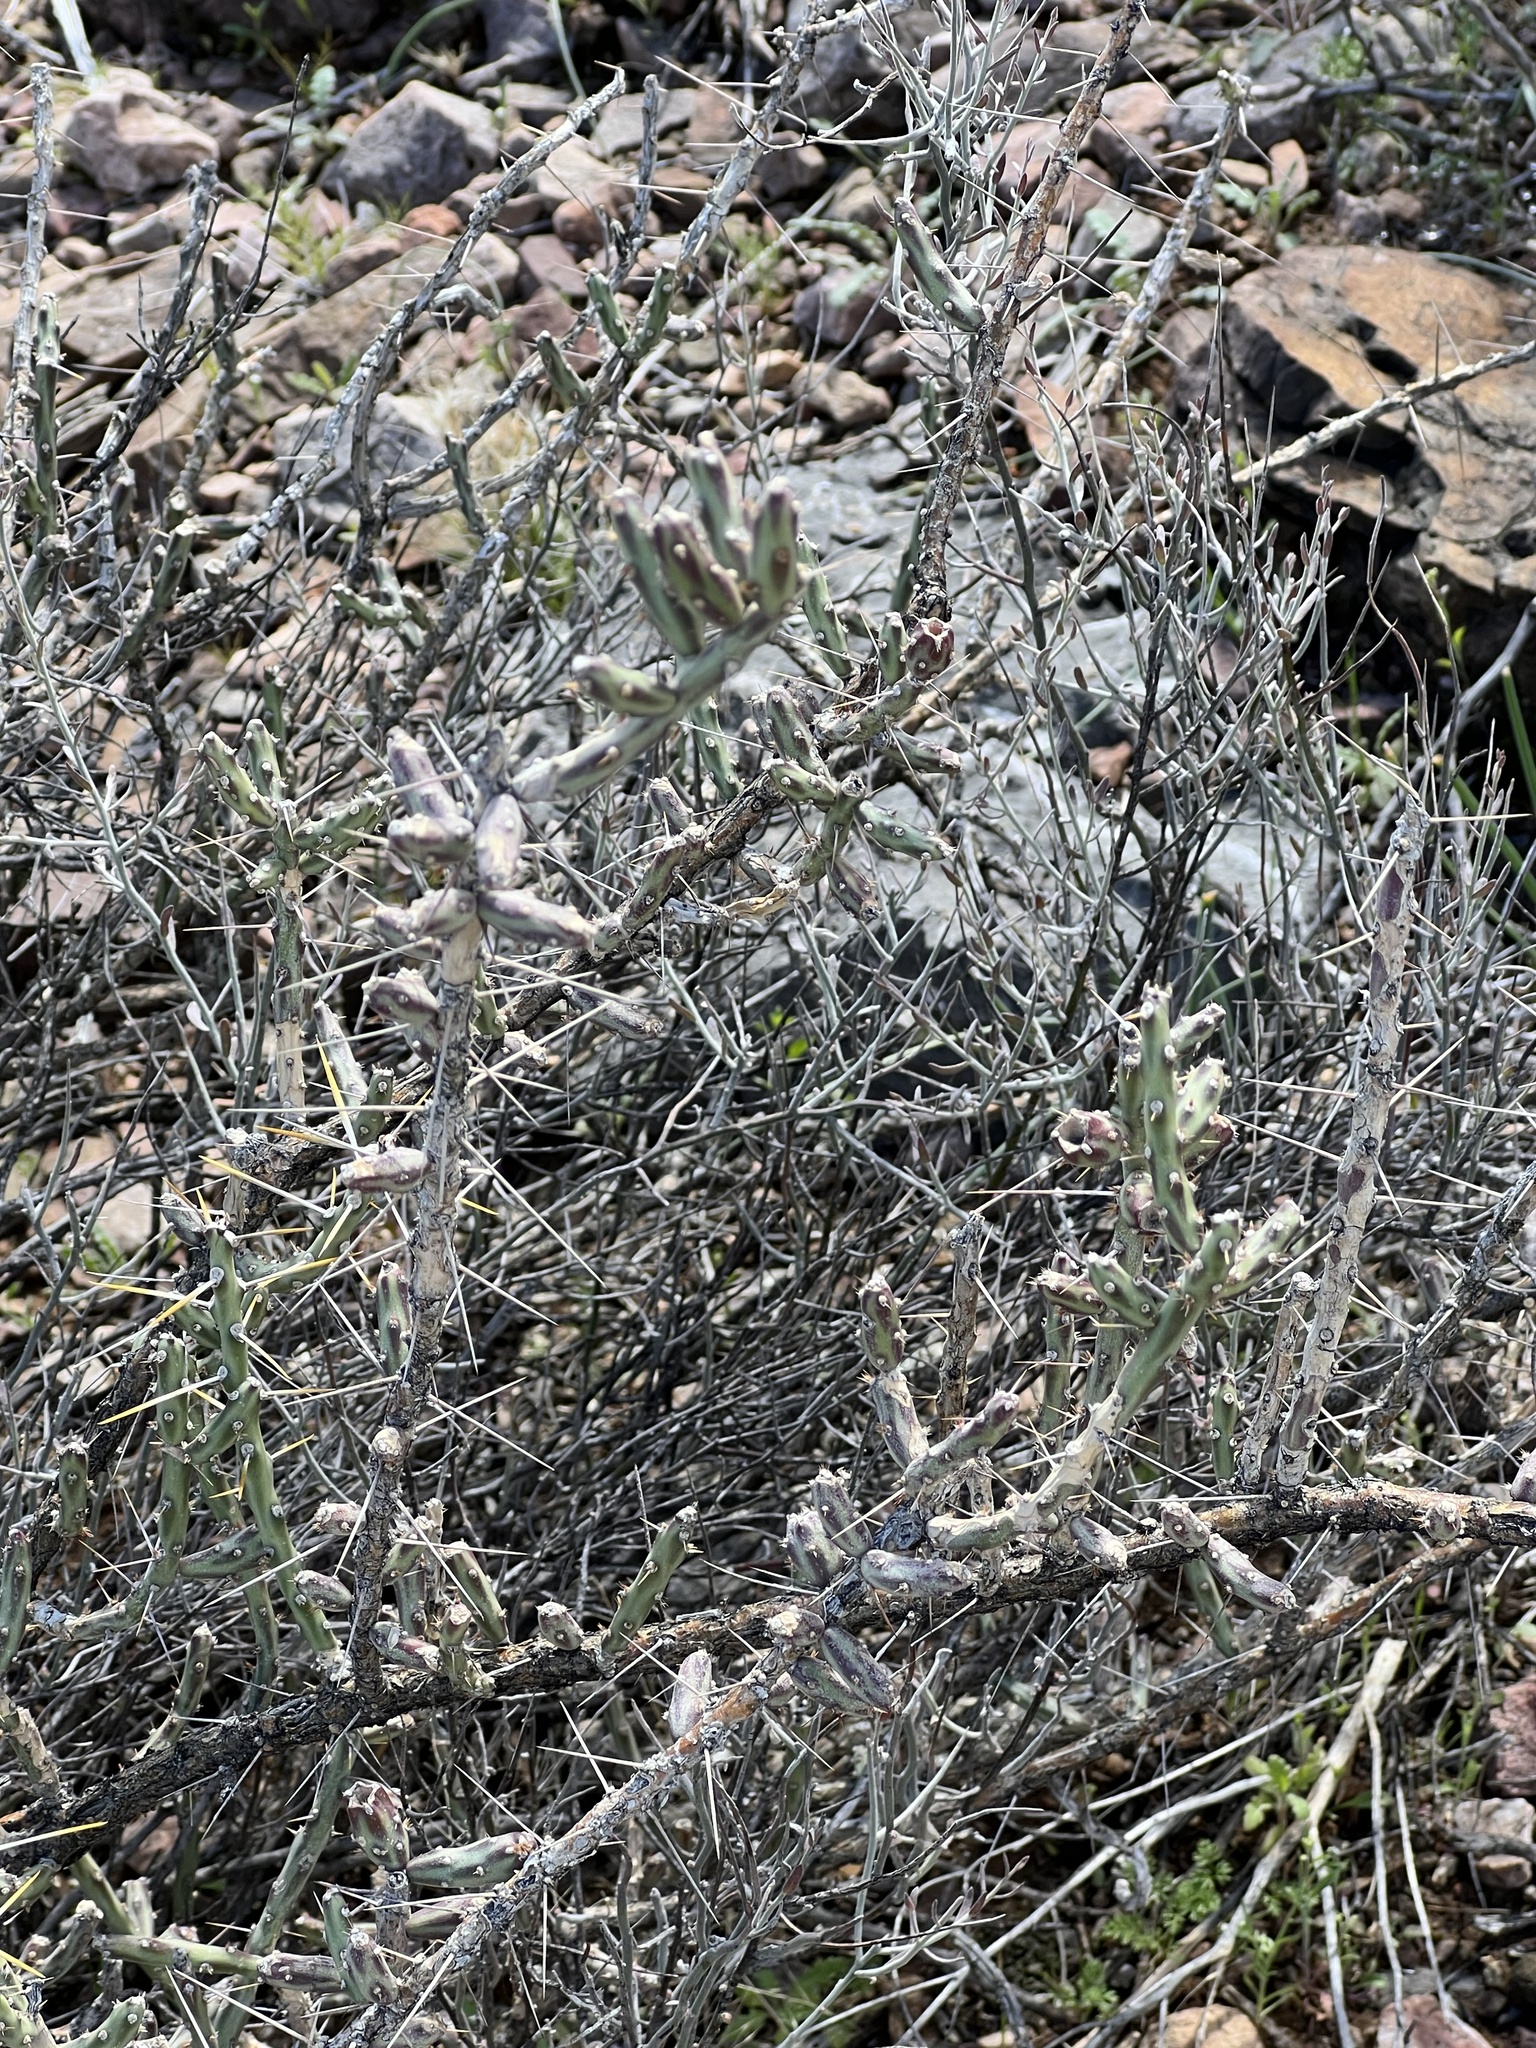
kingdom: Plantae
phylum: Tracheophyta
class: Magnoliopsida
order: Caryophyllales
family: Cactaceae
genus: Cylindropuntia
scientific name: Cylindropuntia leptocaulis
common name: Christmas cactus
